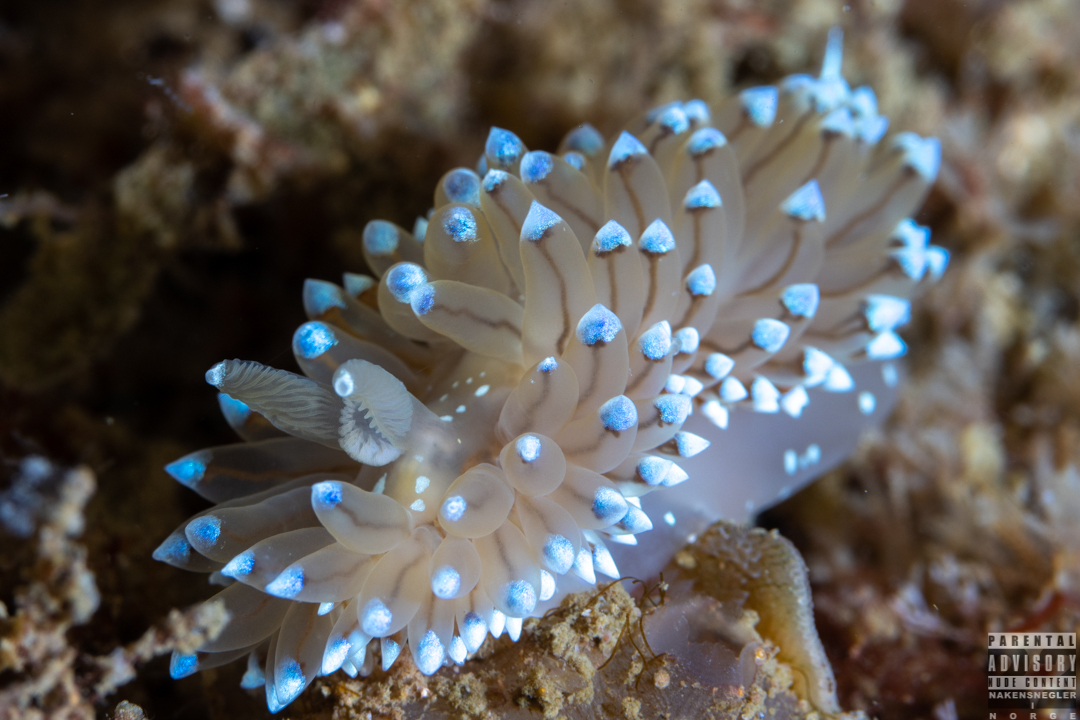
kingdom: Animalia
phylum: Mollusca
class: Gastropoda
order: Nudibranchia
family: Janolidae
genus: Antiopella
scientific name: Antiopella cristata
